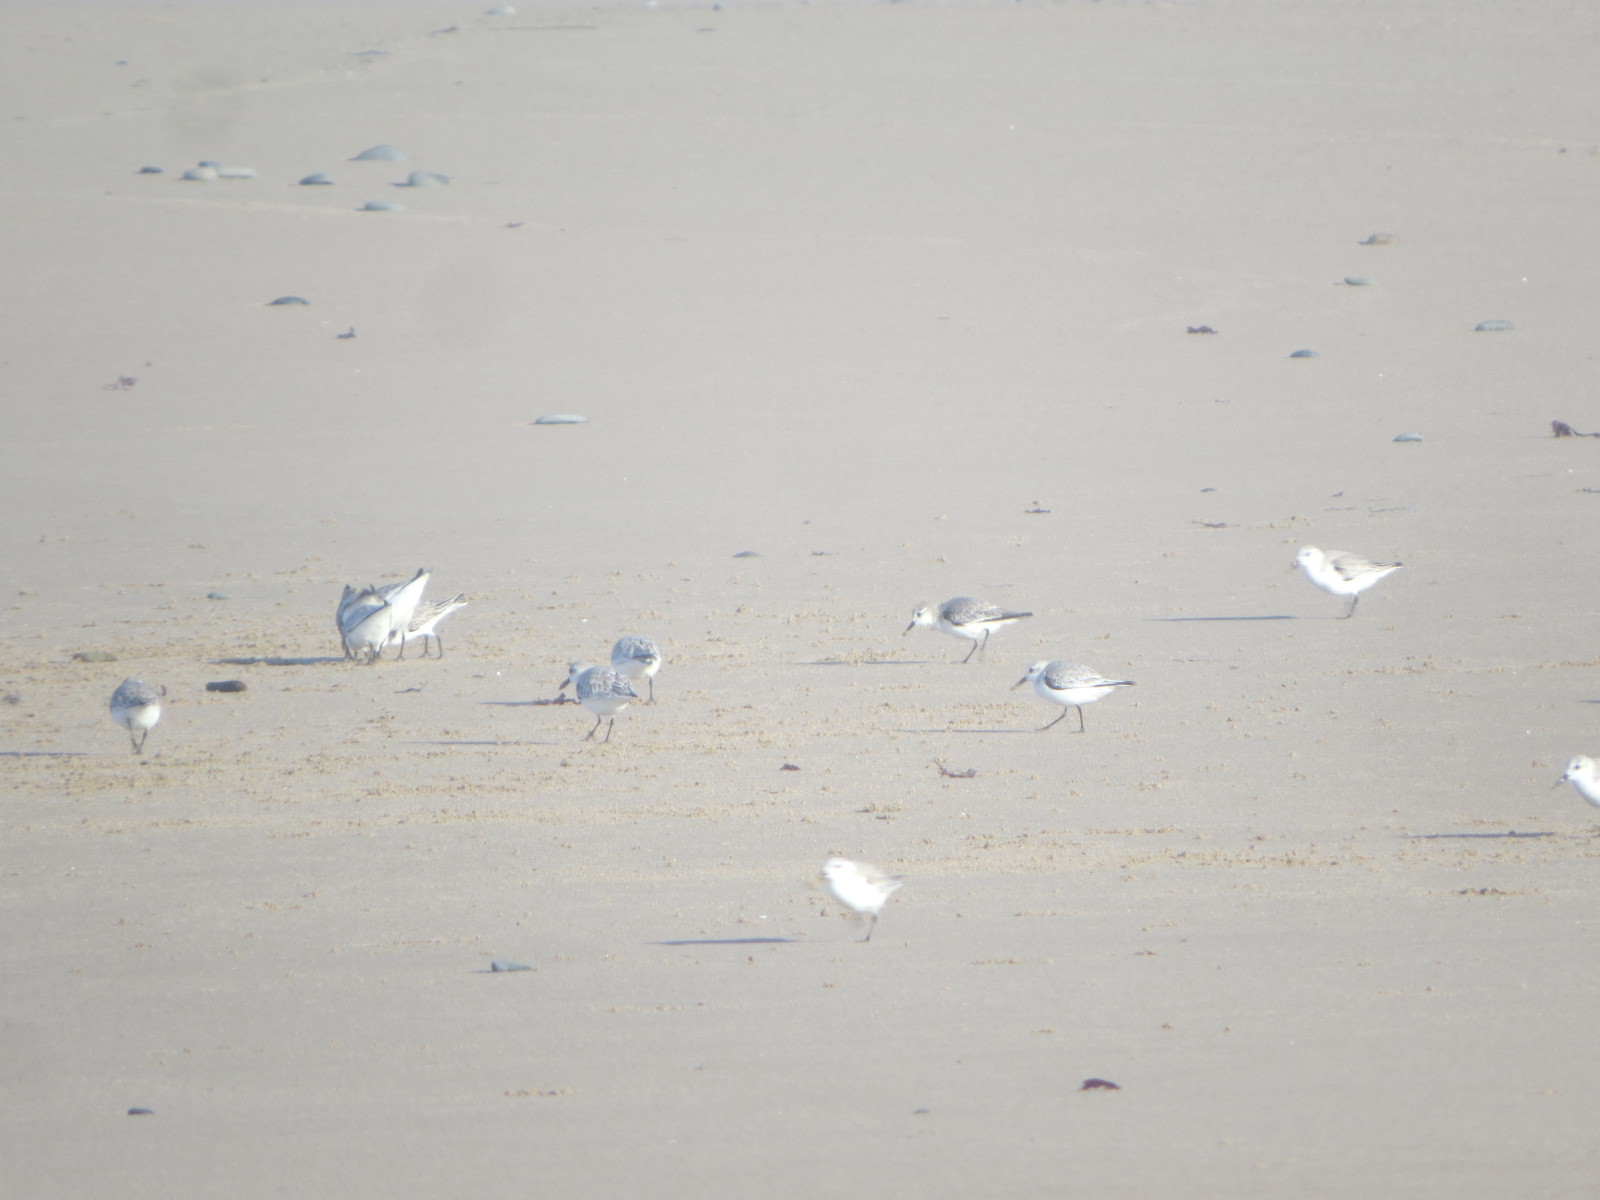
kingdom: Animalia
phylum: Chordata
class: Aves
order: Charadriiformes
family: Scolopacidae
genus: Calidris
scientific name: Calidris alba
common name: Sanderling
